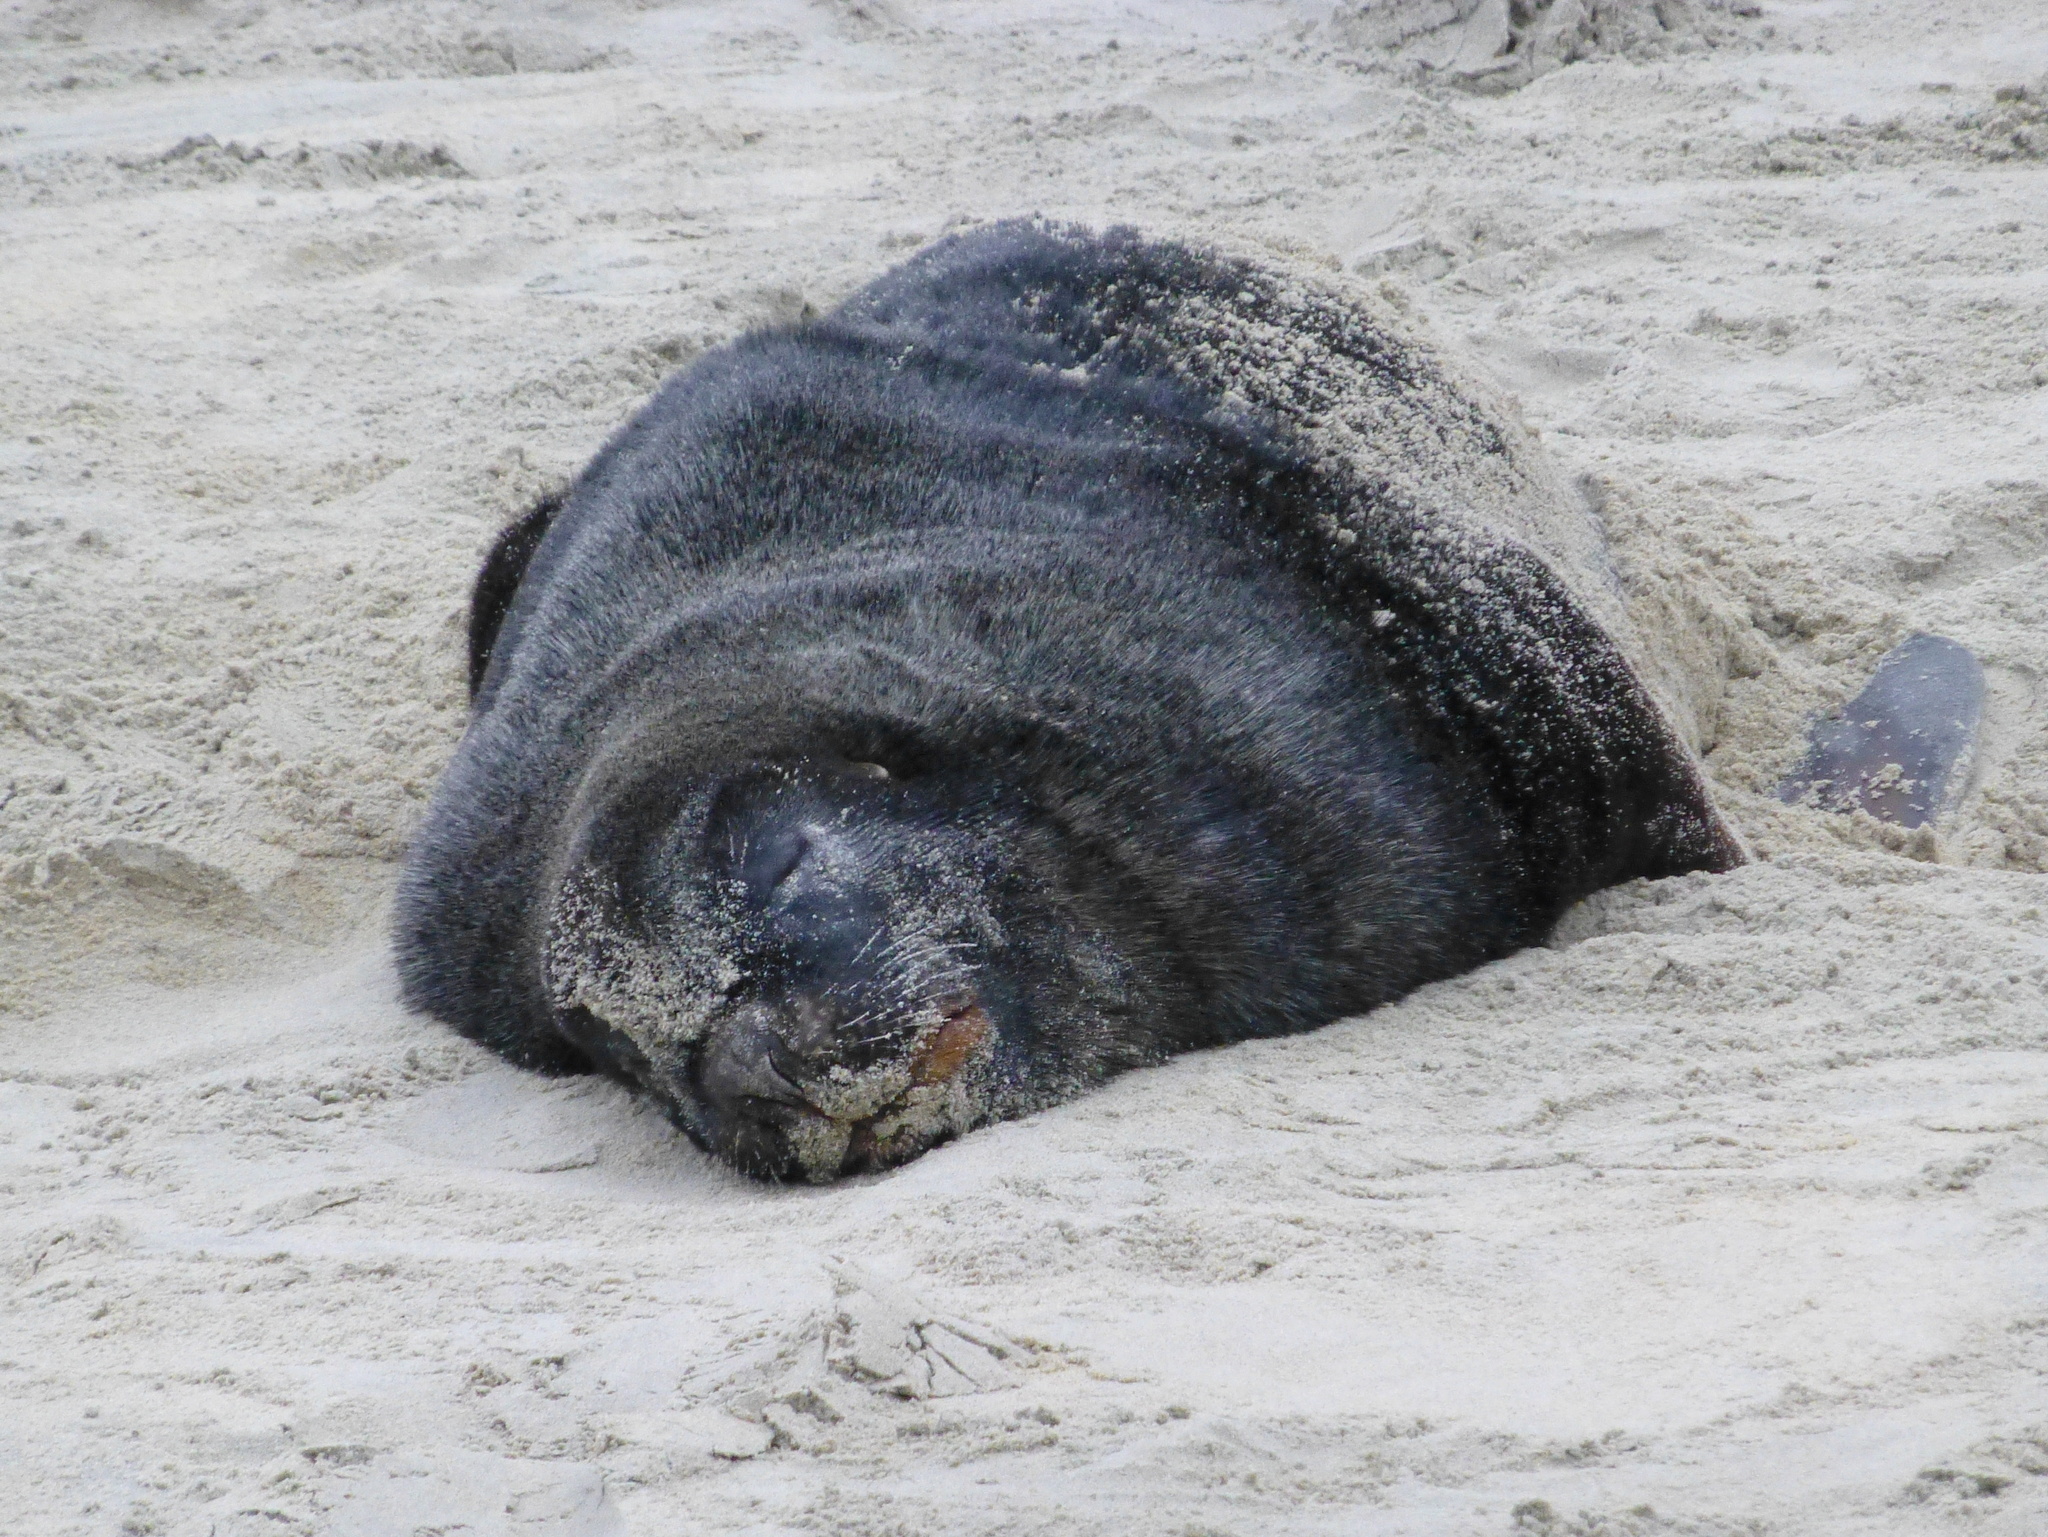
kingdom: Animalia
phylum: Chordata
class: Mammalia
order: Carnivora
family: Otariidae
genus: Phocarctos
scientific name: Phocarctos hookeri
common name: New zealand sea lion
